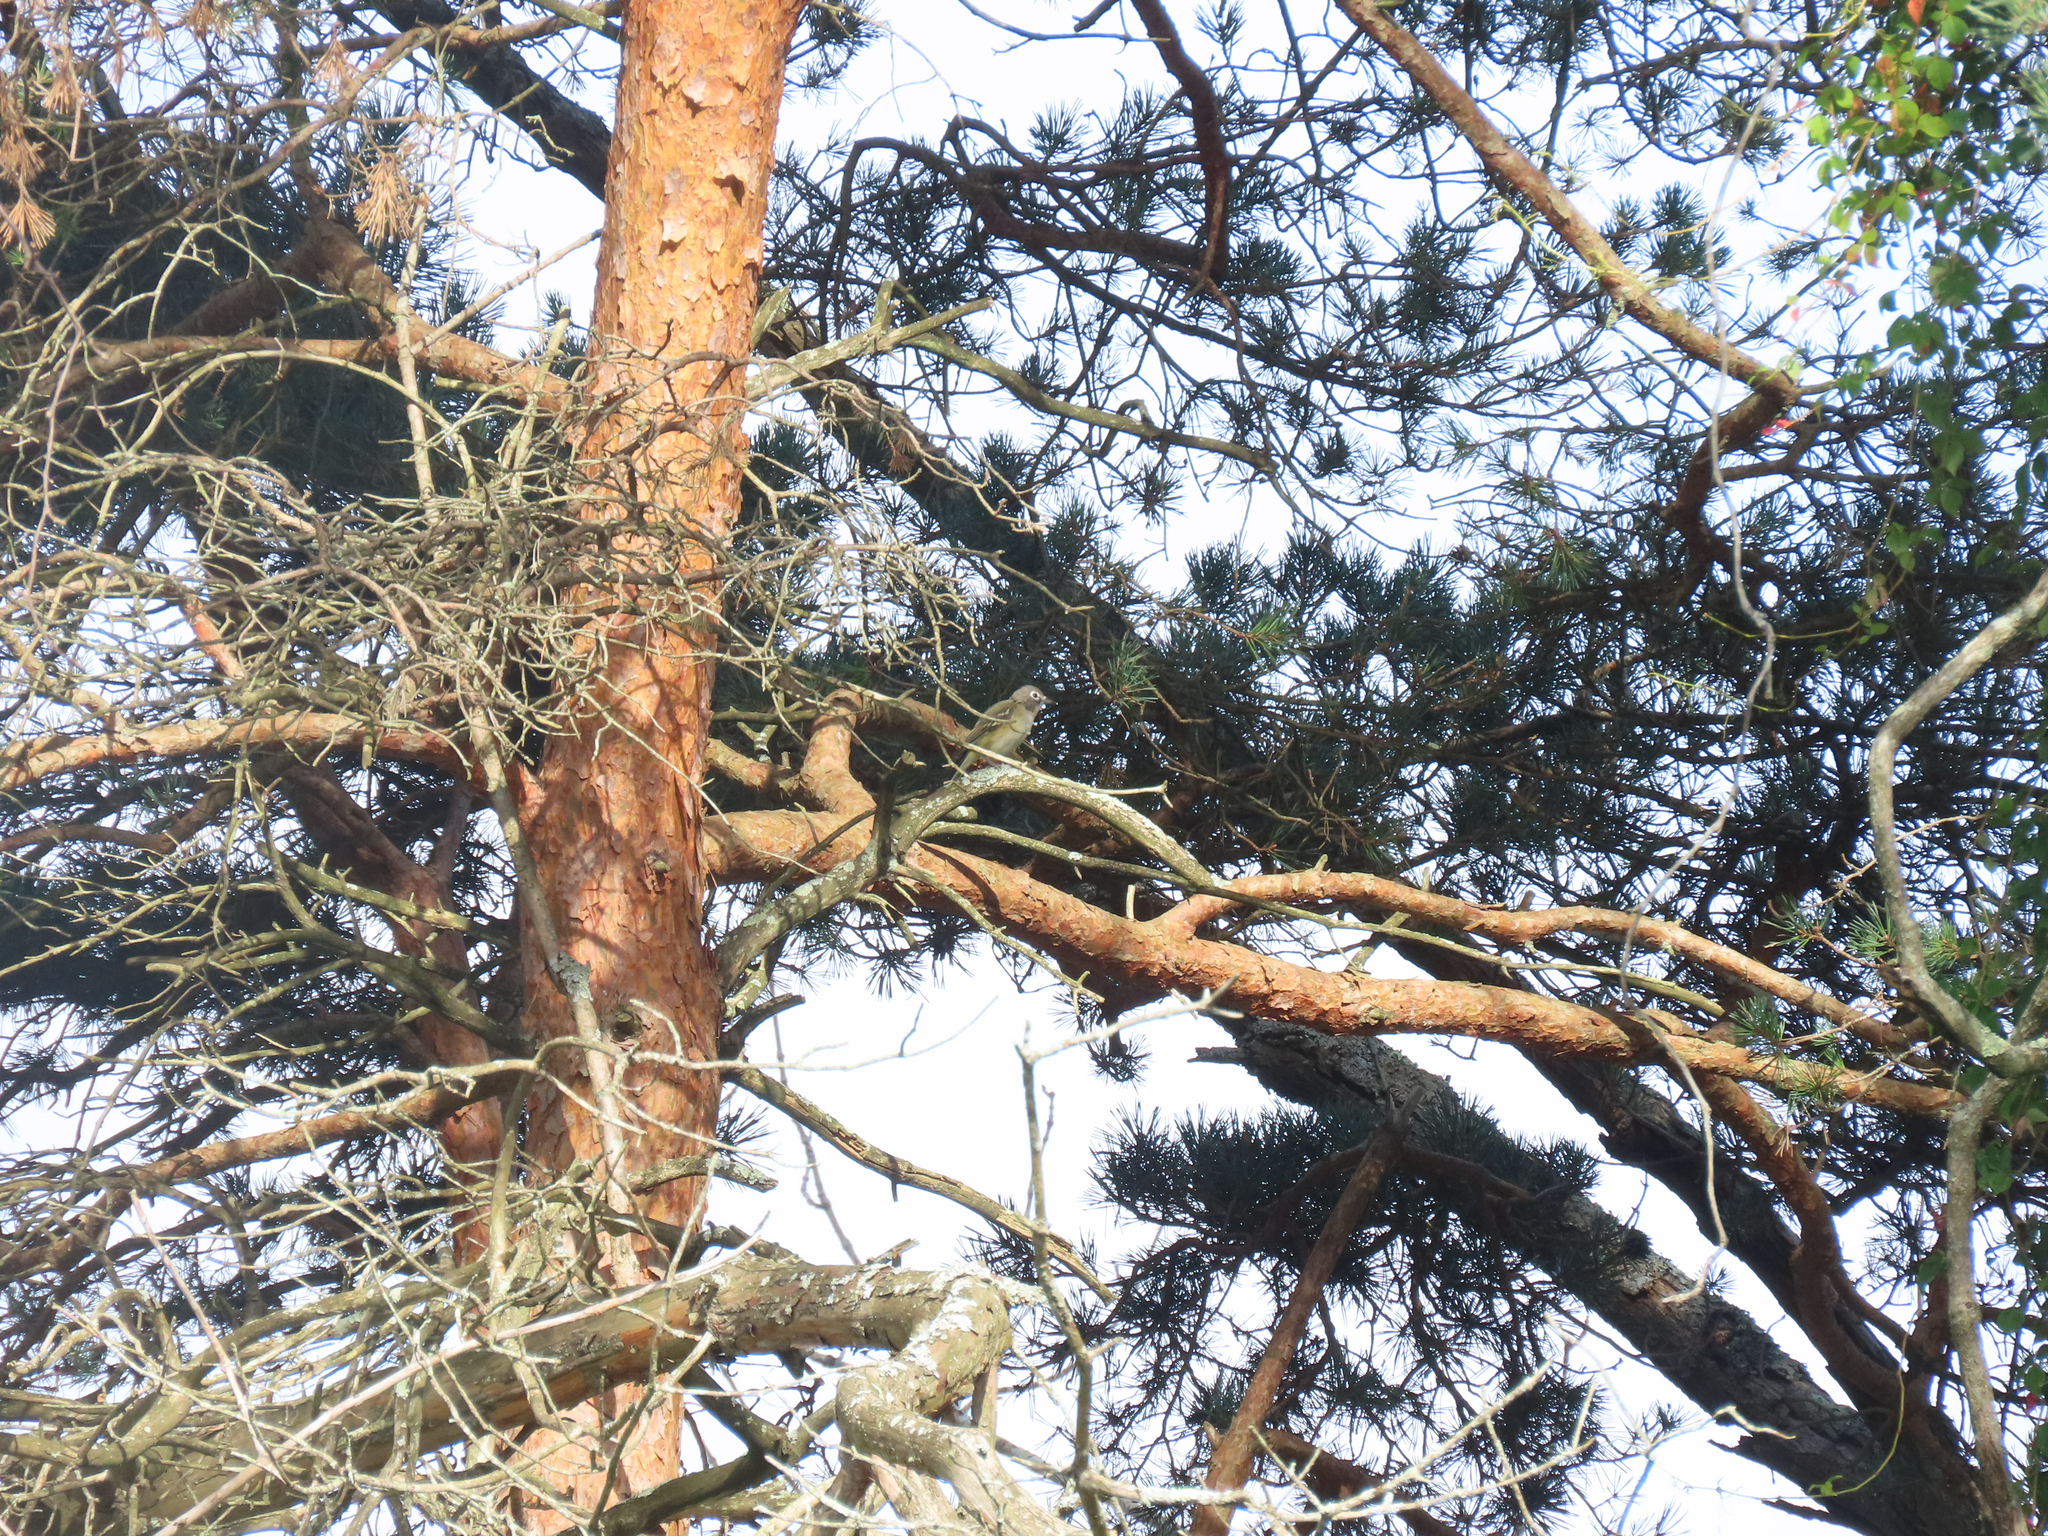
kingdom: Animalia
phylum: Chordata
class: Aves
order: Passeriformes
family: Vireonidae
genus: Vireo
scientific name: Vireo solitarius
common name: Blue-headed vireo
